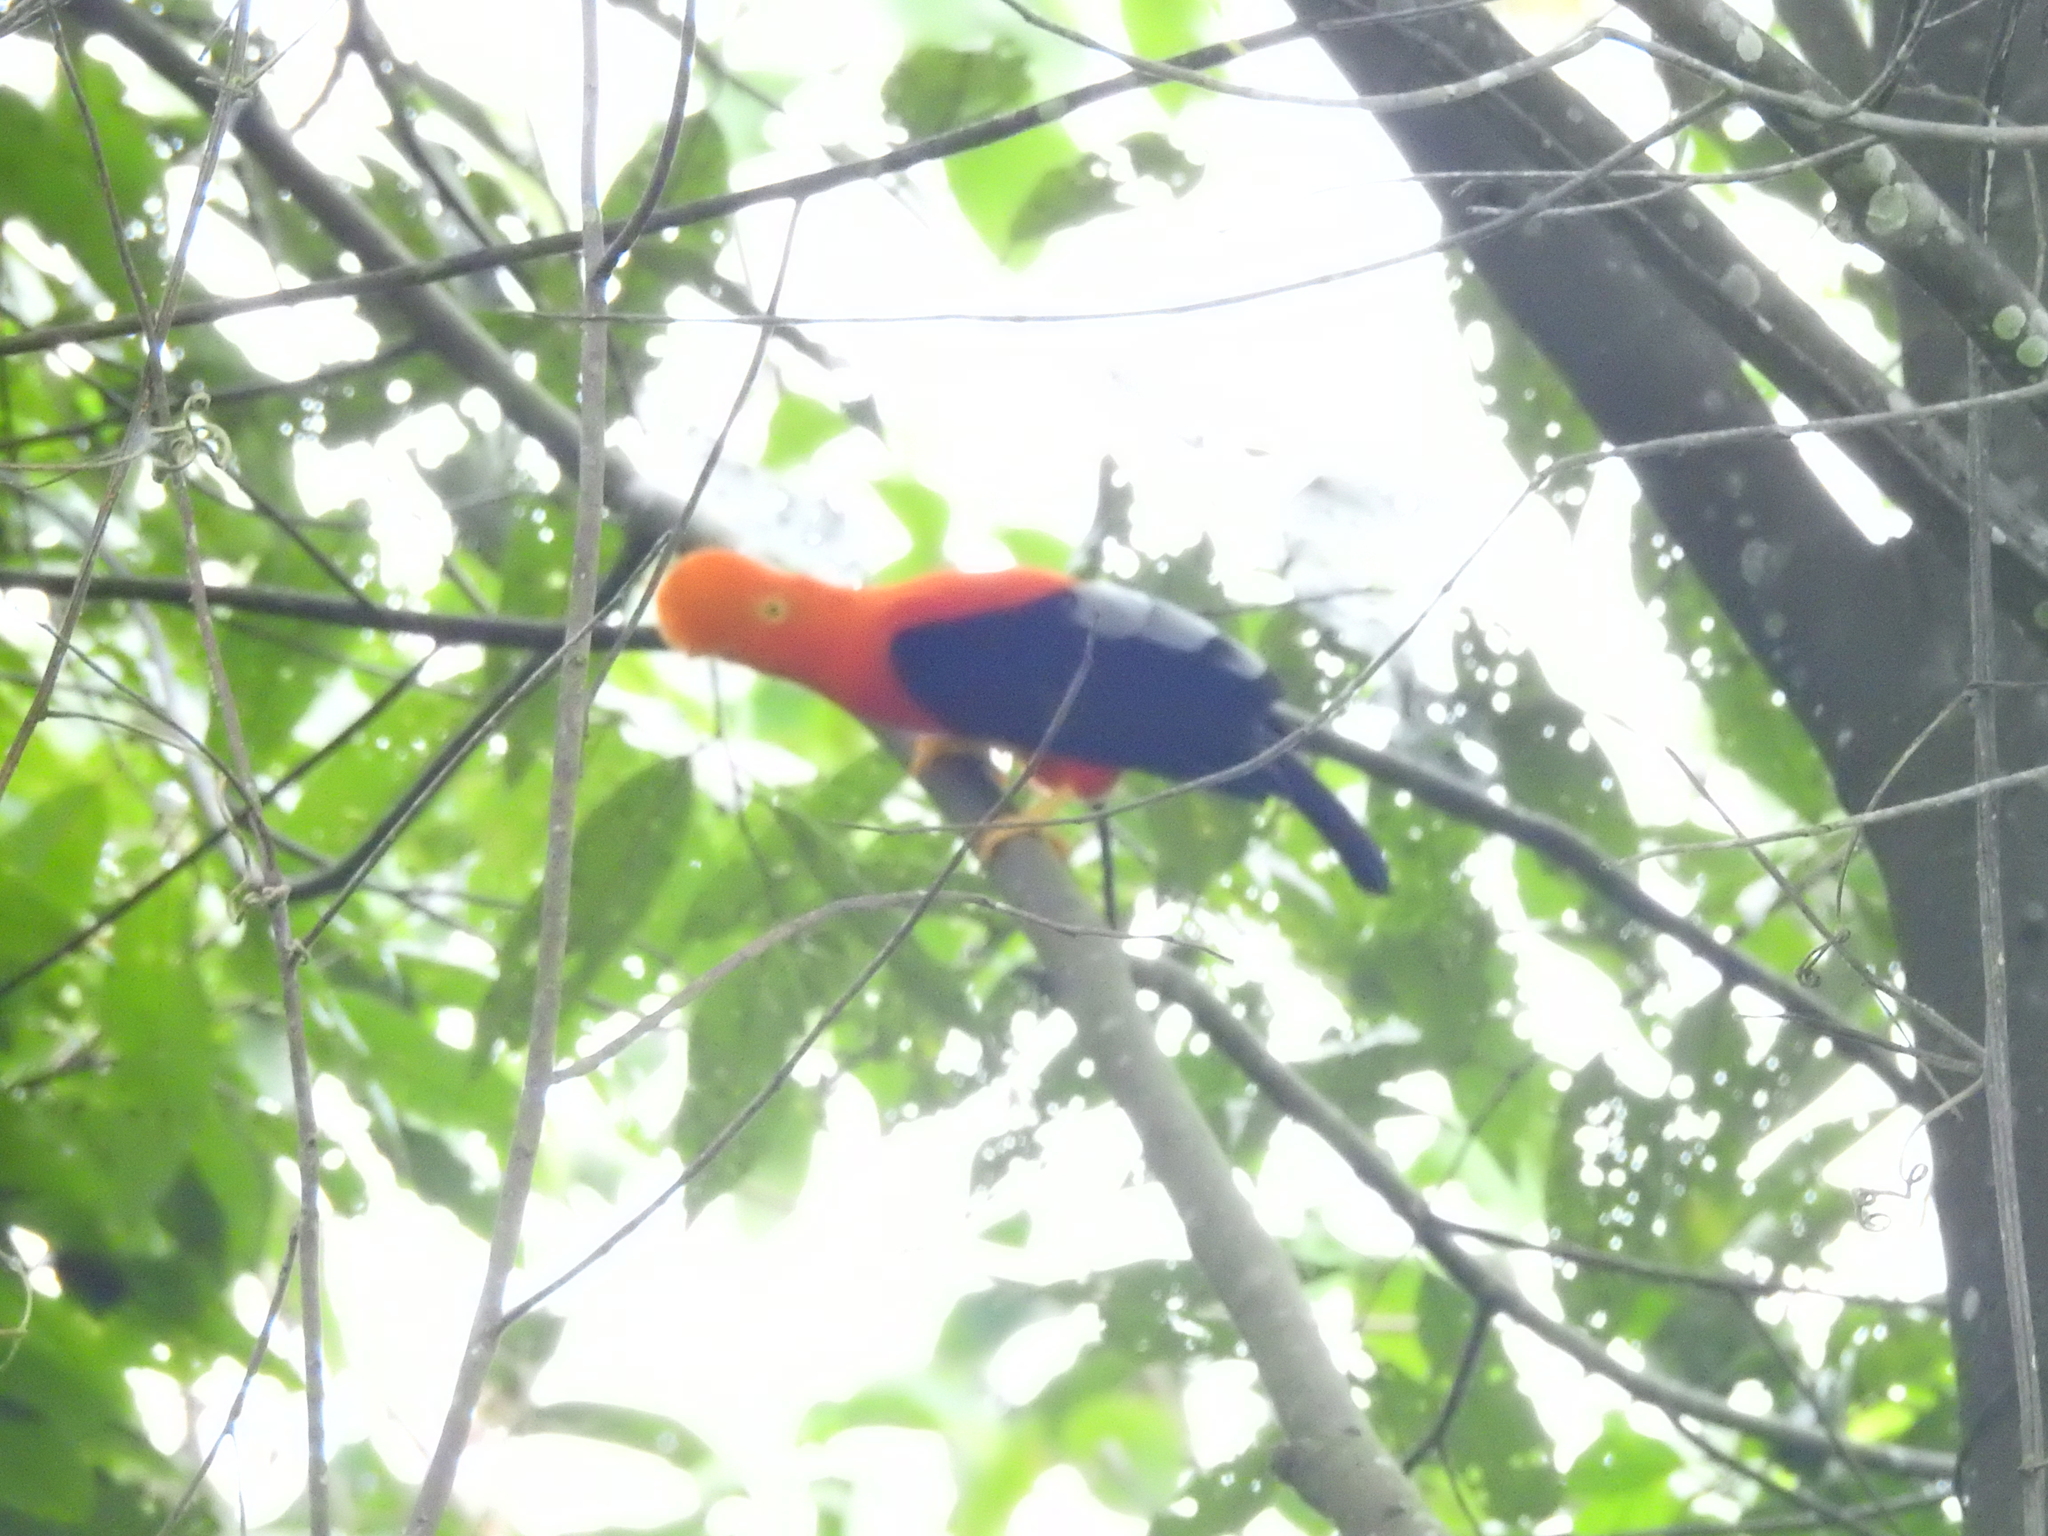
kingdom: Animalia
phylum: Chordata
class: Aves
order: Passeriformes
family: Cotingidae
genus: Rupicola
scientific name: Rupicola peruvianus
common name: Andean cock-of-the-rock
